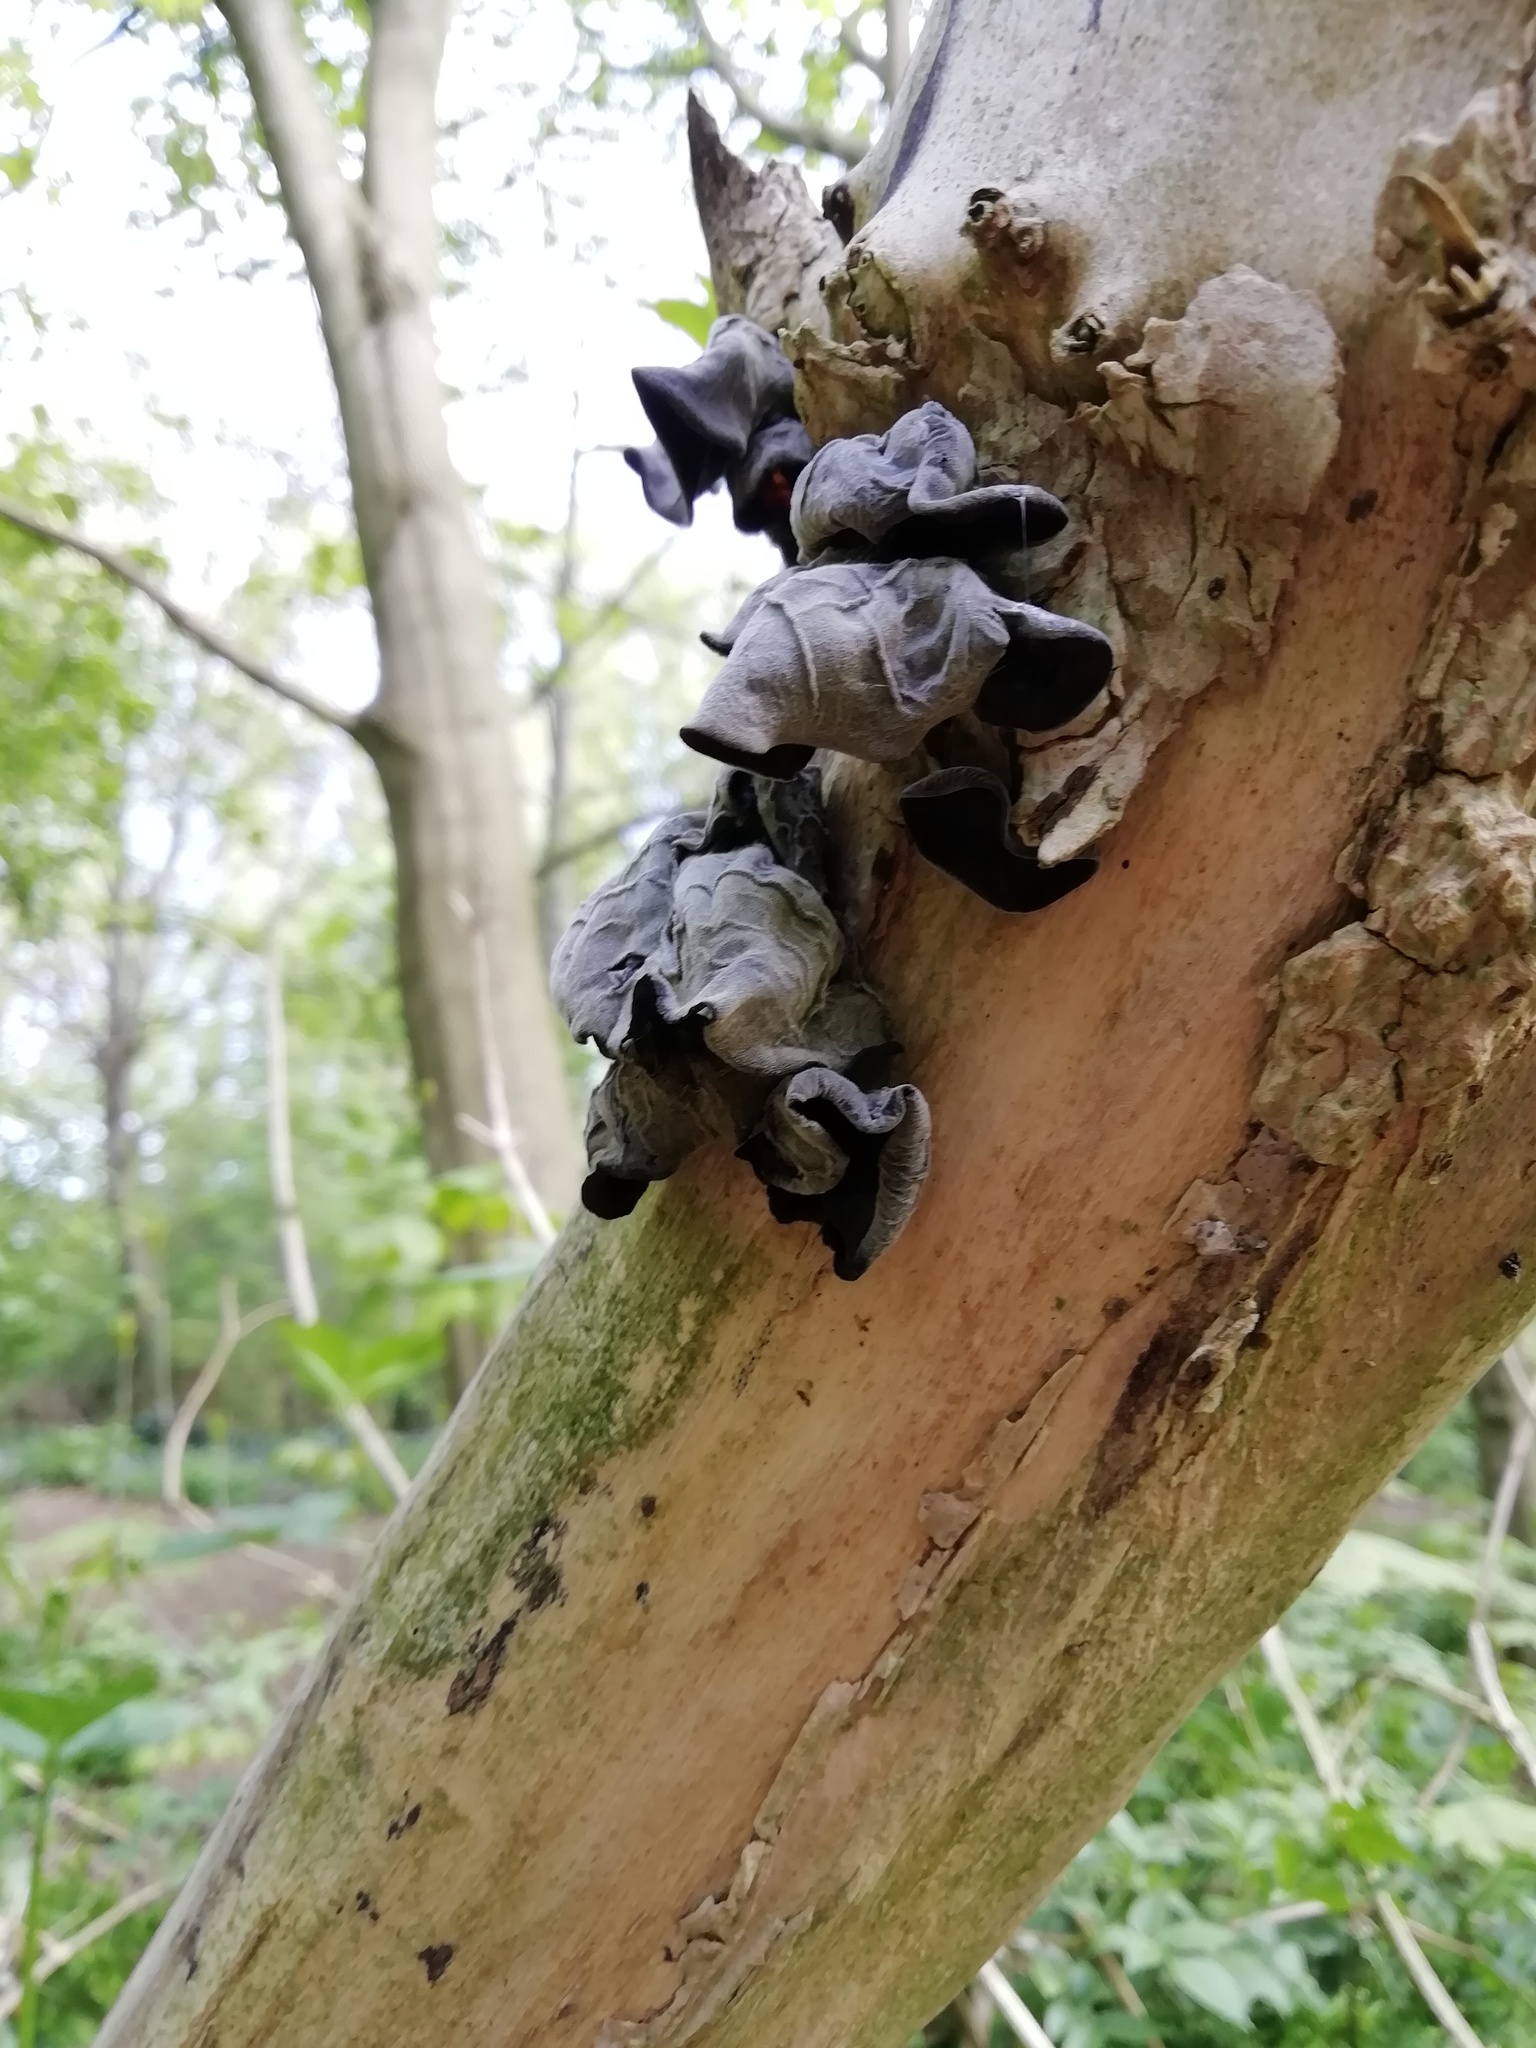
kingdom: Fungi
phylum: Basidiomycota
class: Agaricomycetes
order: Auriculariales
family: Auriculariaceae
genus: Auricularia
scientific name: Auricularia auricula-judae
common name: Jelly ear
